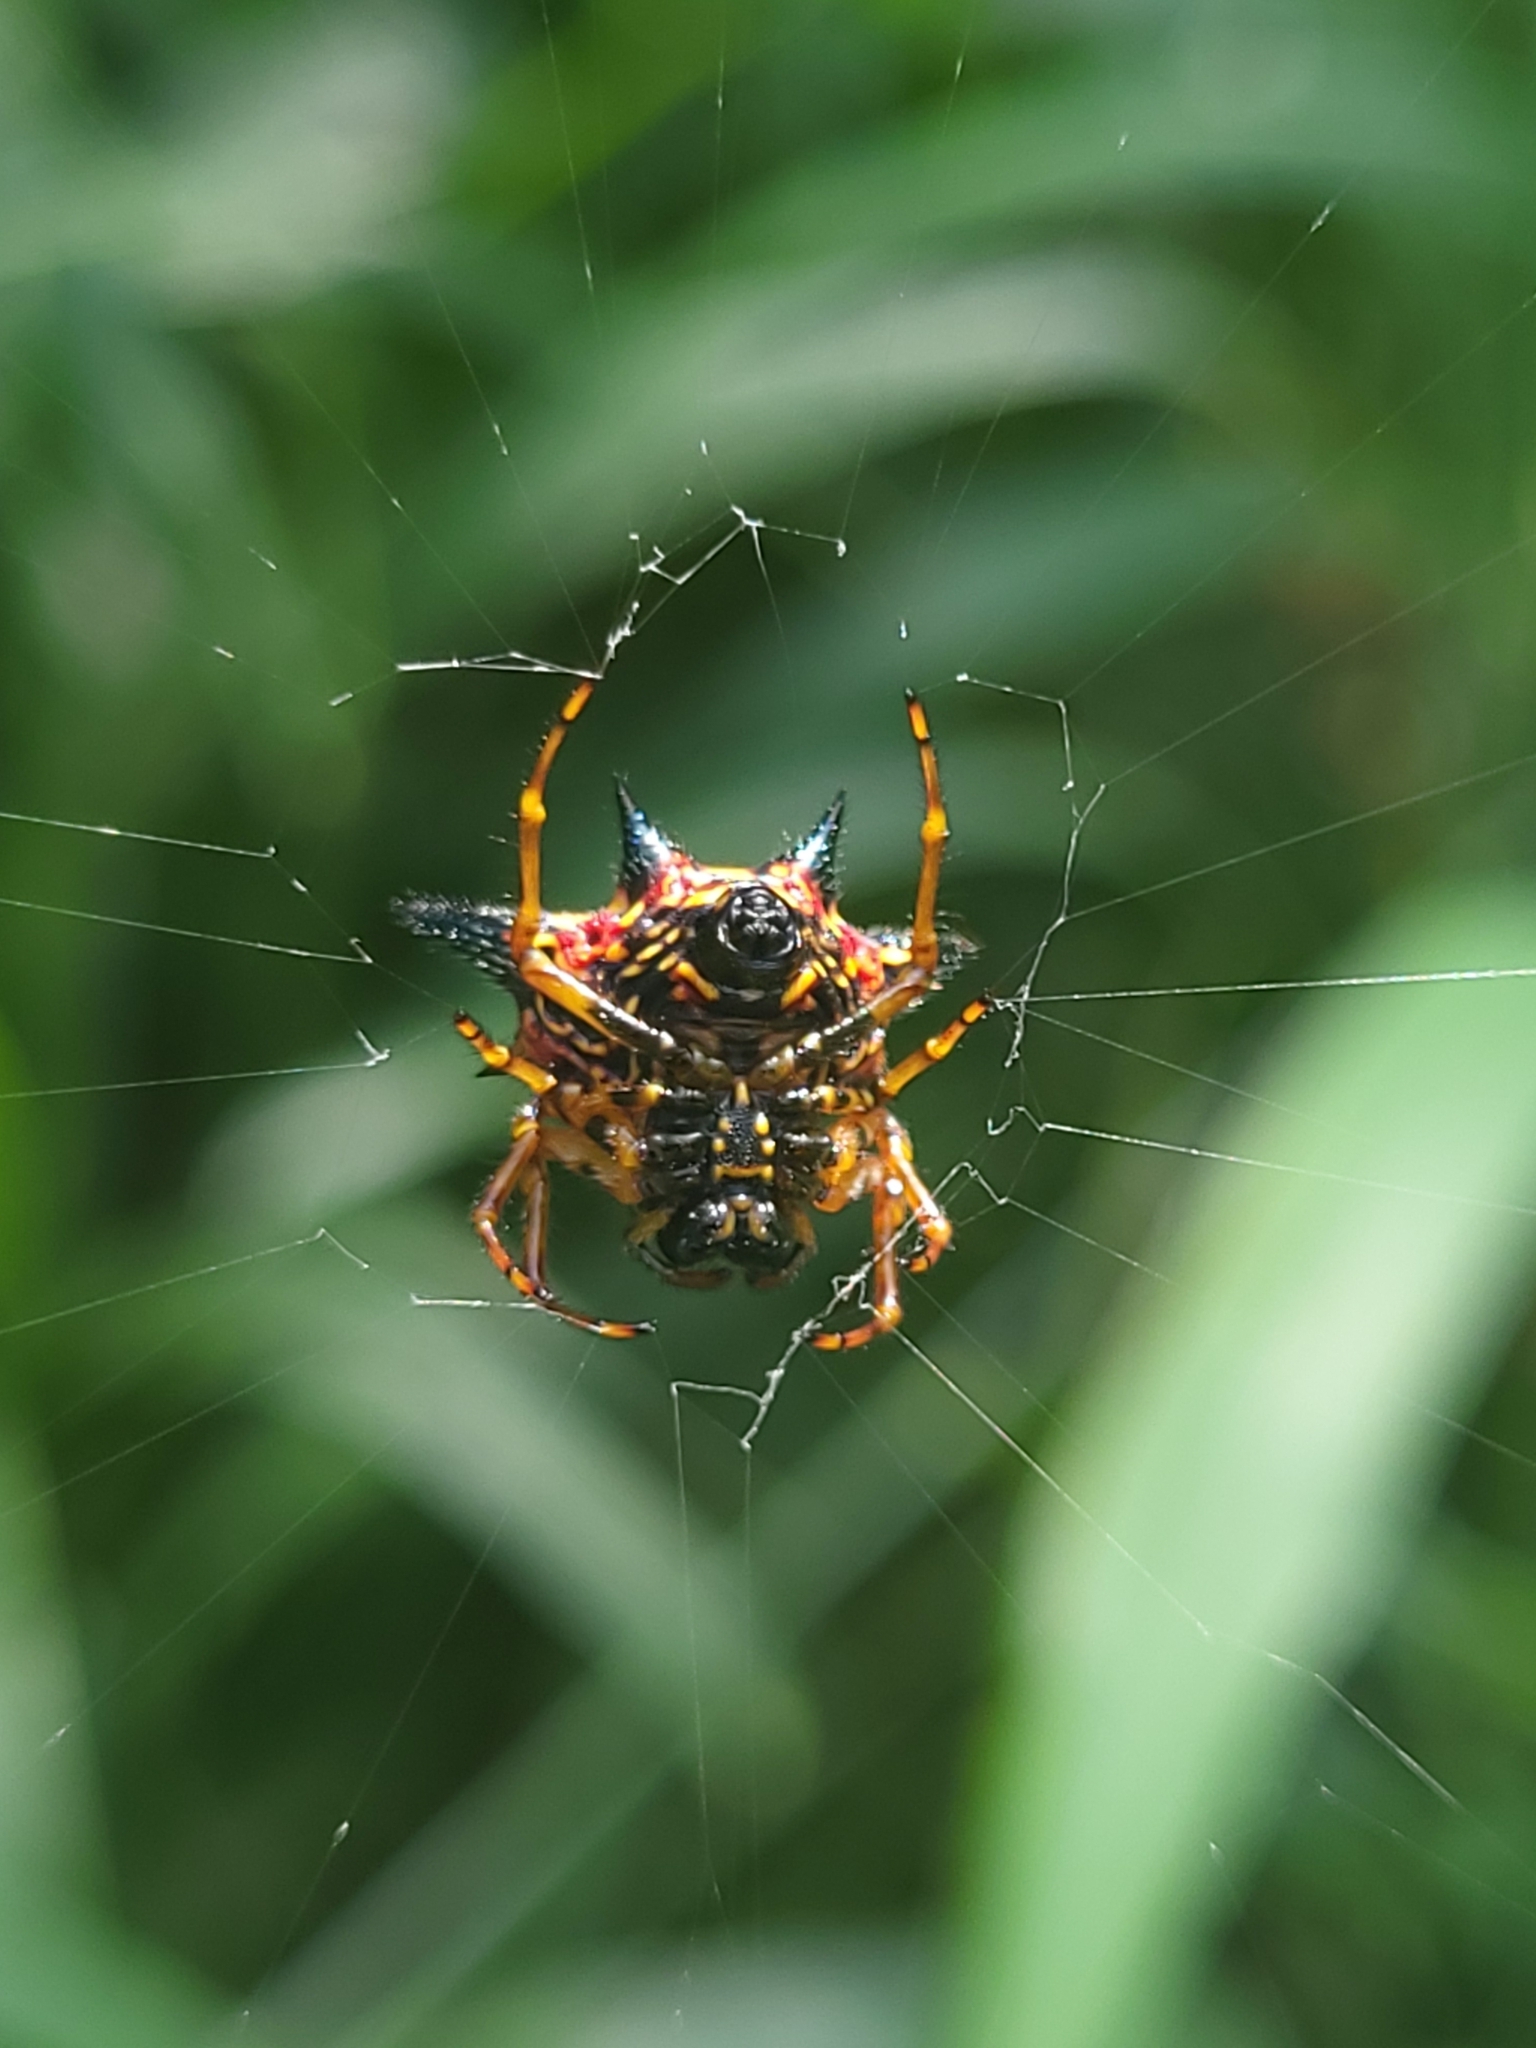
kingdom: Animalia
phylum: Arthropoda
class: Arachnida
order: Araneae
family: Araneidae
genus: Macracantha
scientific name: Macracantha hasselti
